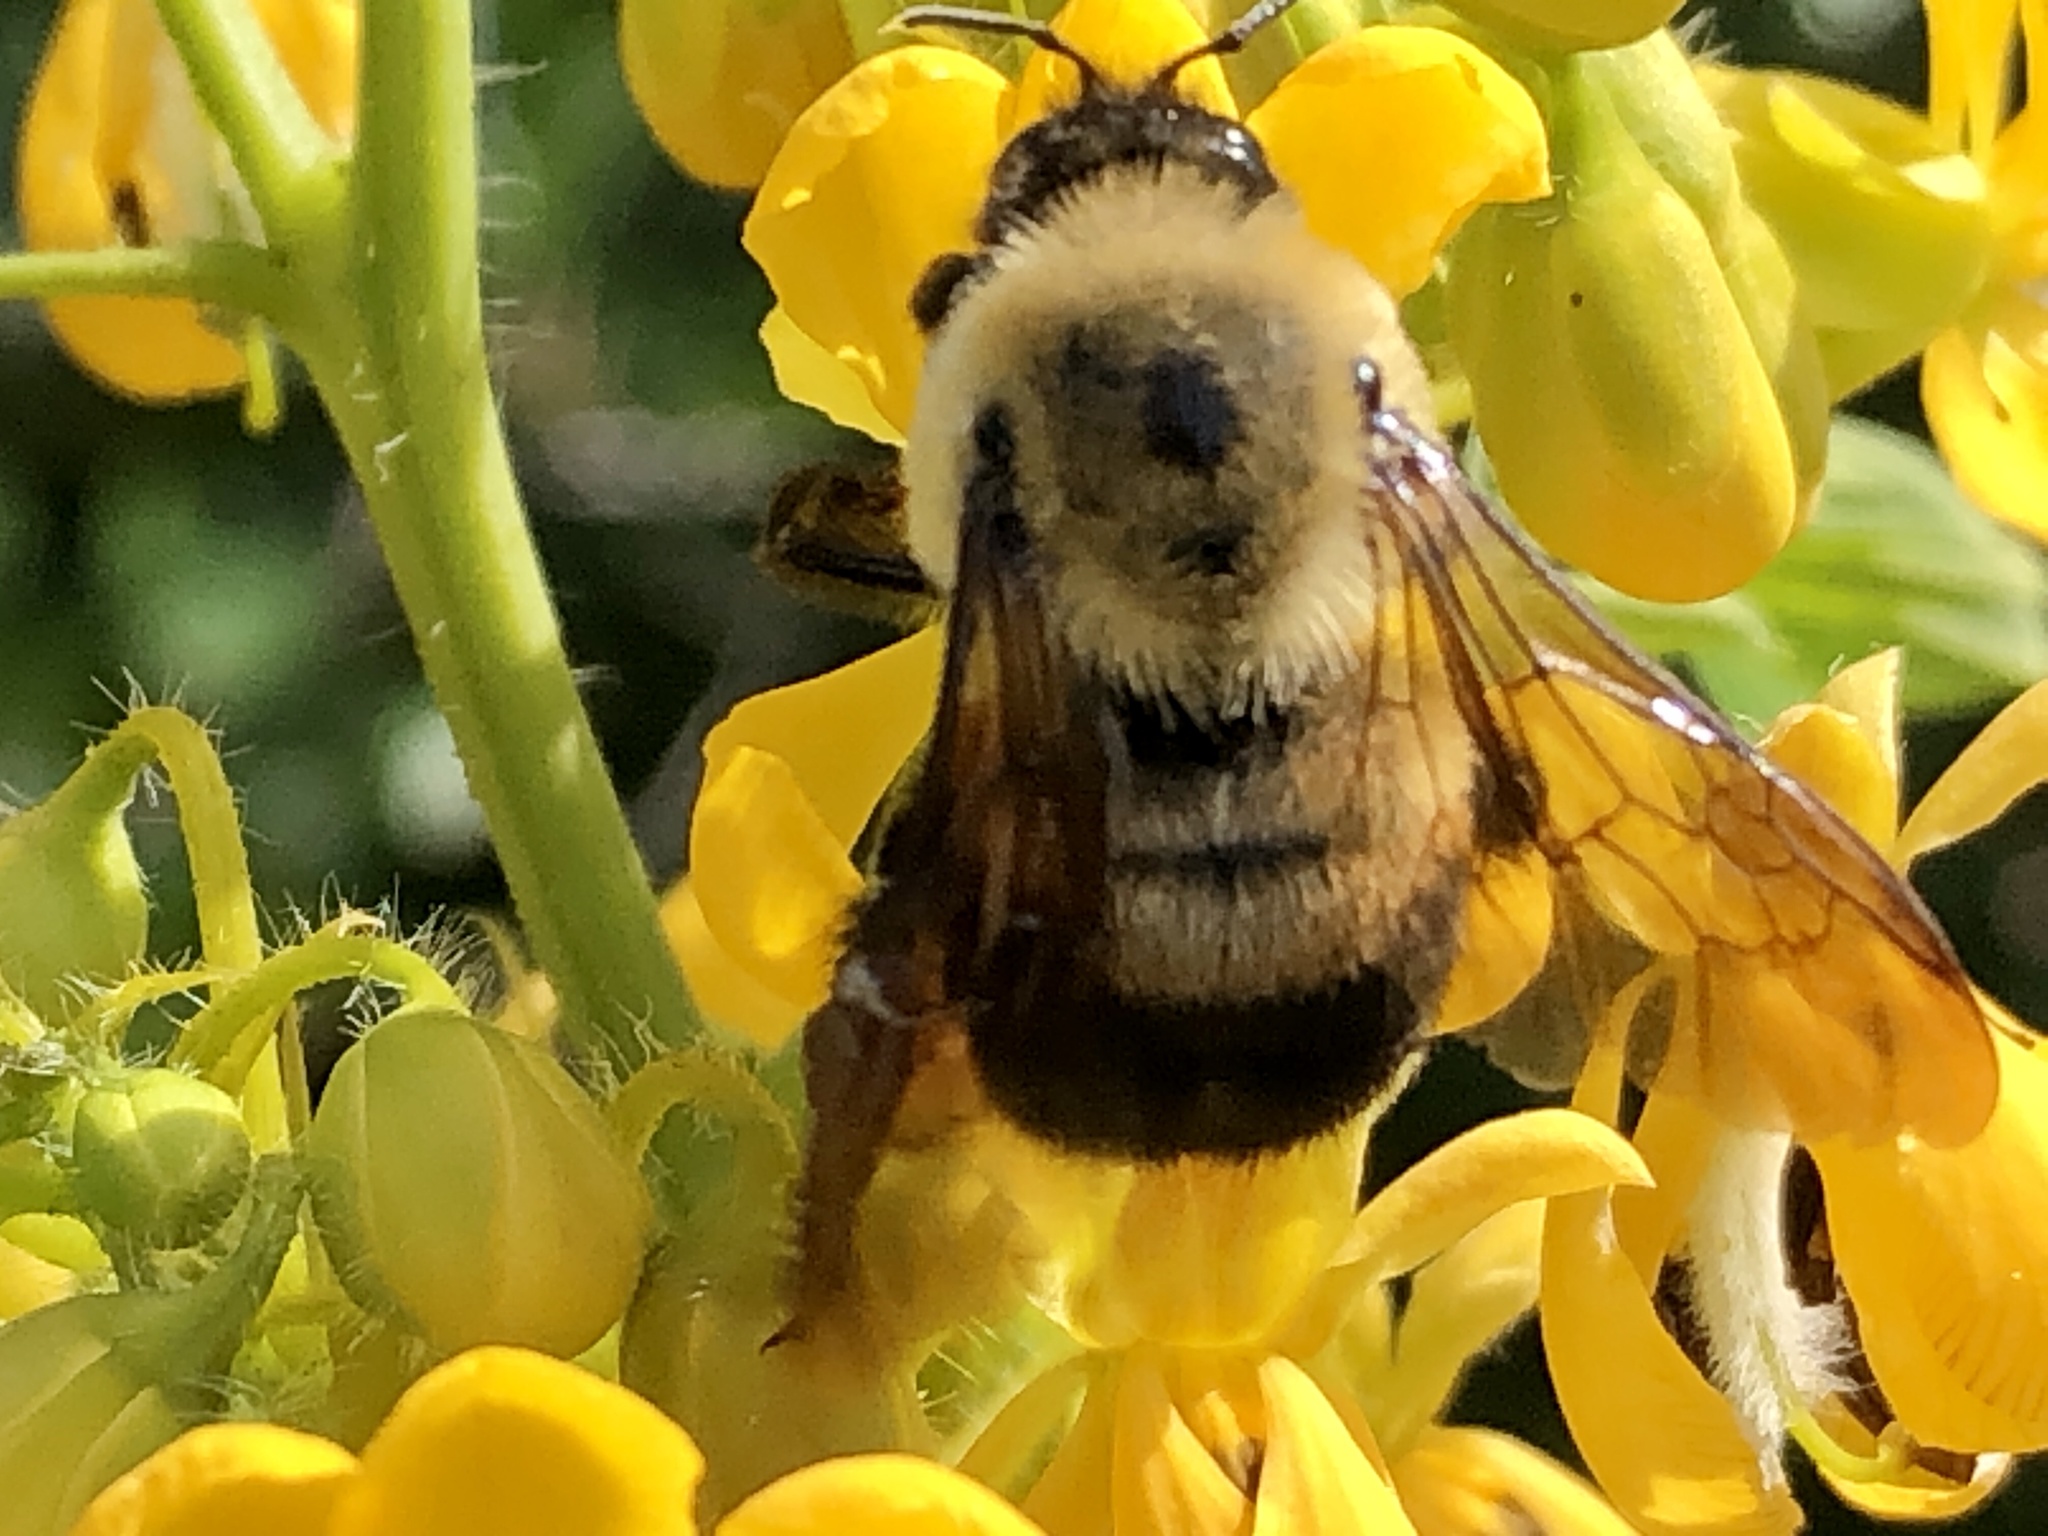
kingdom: Animalia
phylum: Arthropoda
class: Insecta
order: Hymenoptera
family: Apidae
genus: Bombus
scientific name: Bombus griseocollis
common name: Brown-belted bumble bee
